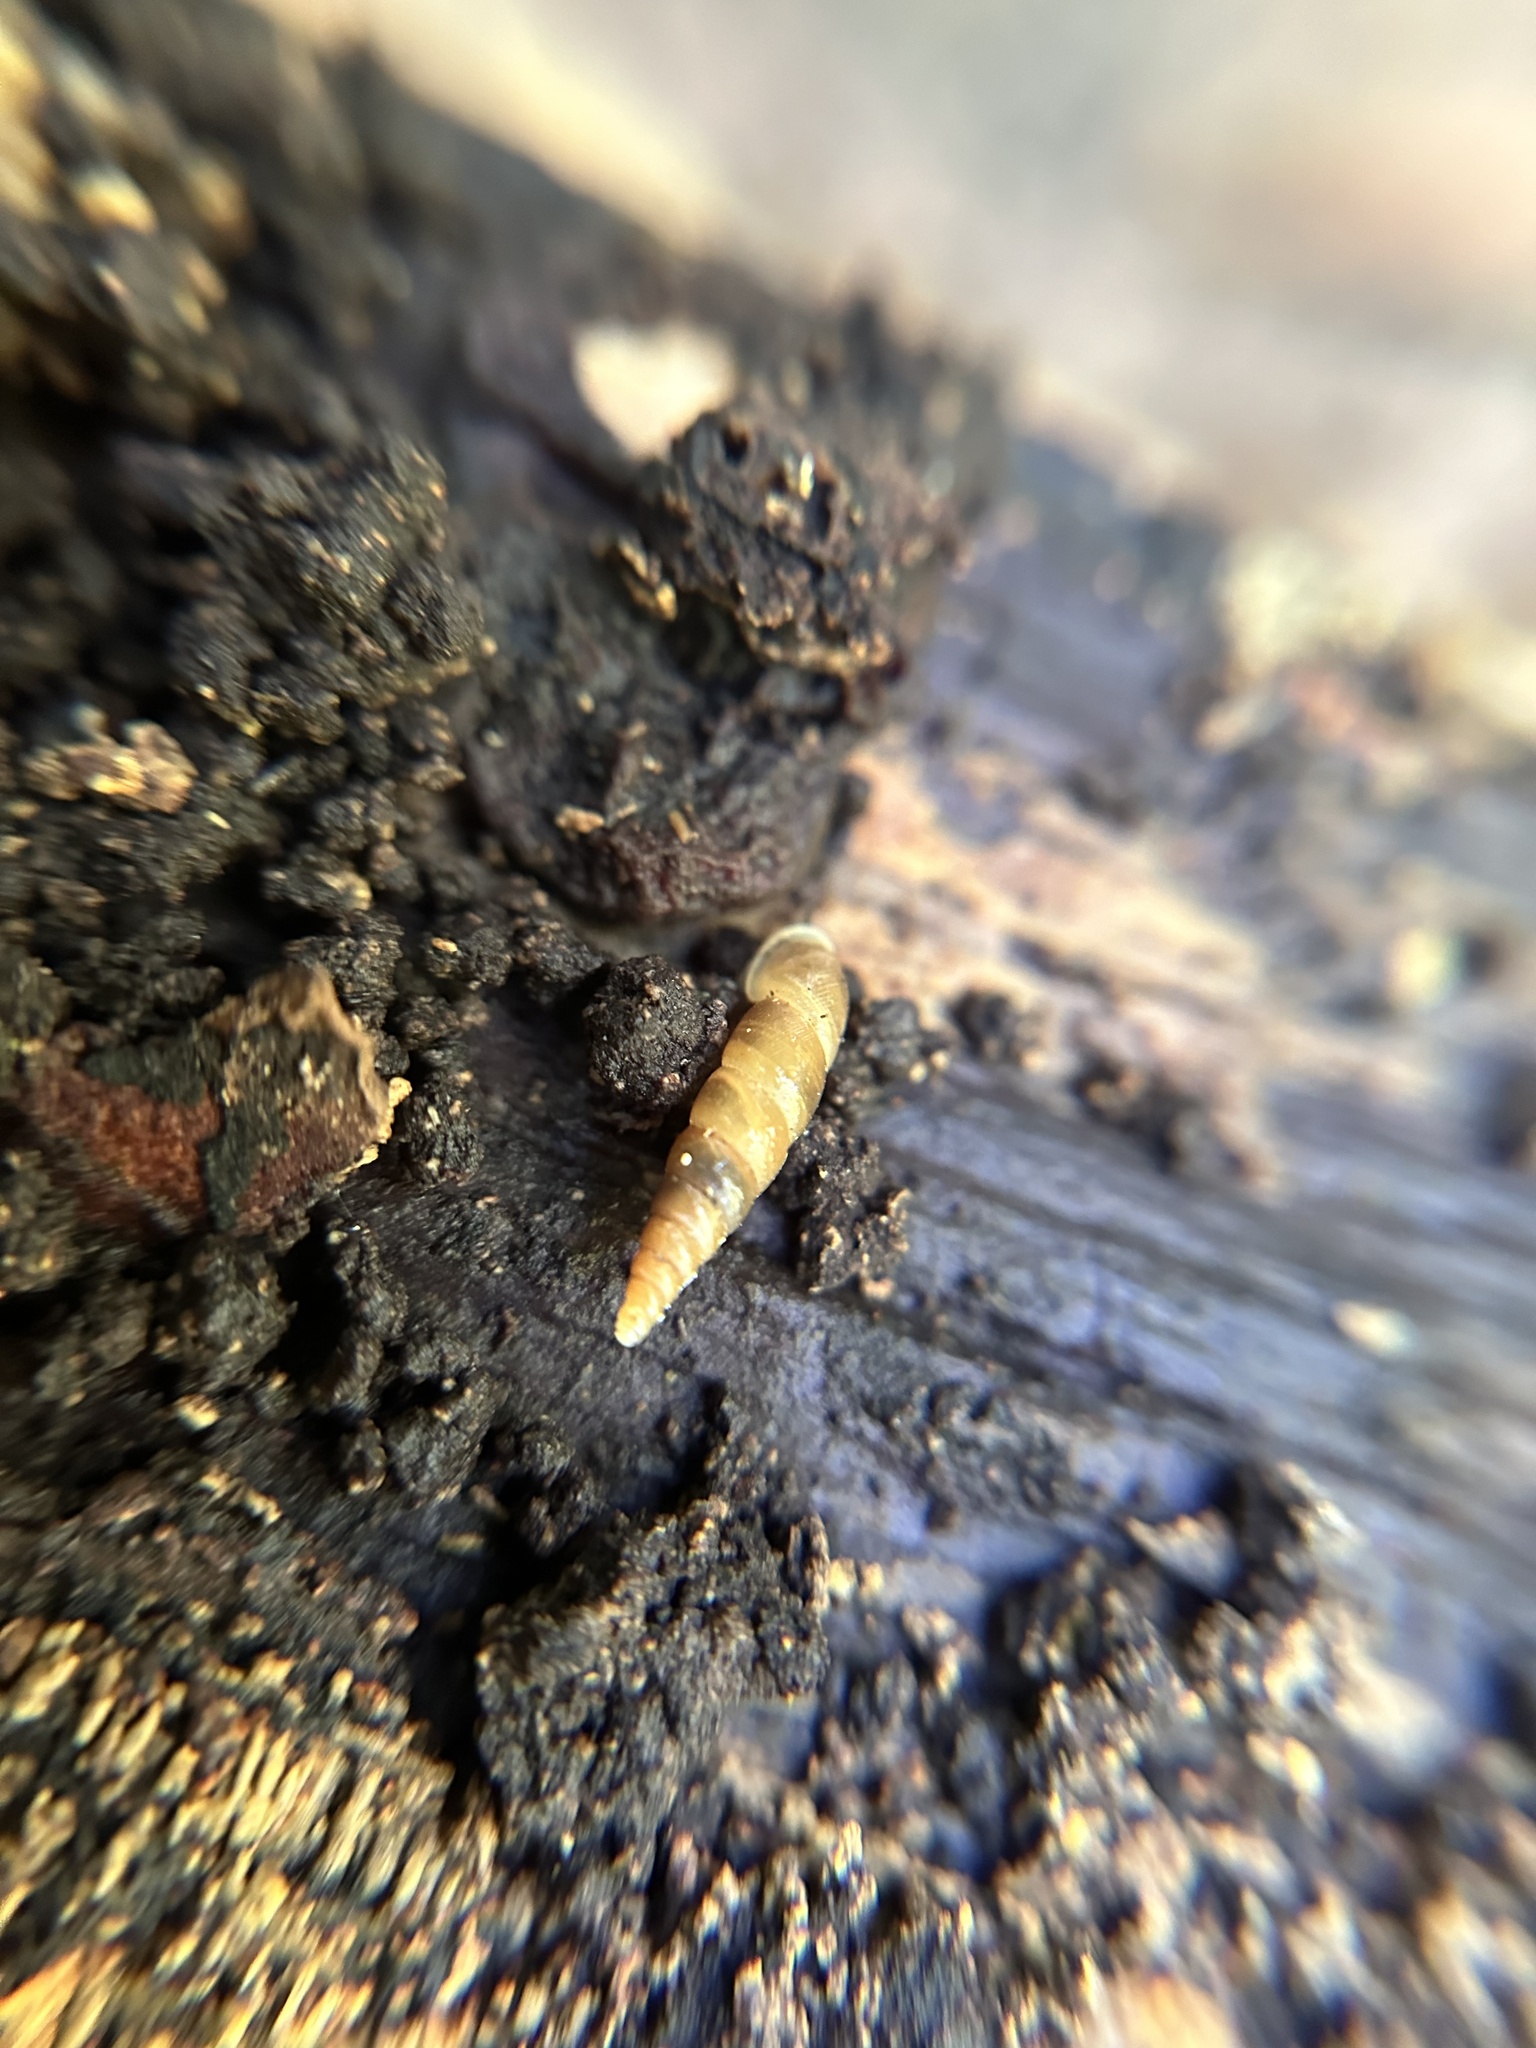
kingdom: Animalia
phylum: Mollusca
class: Gastropoda
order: Stylommatophora
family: Clausiliidae
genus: Tauphaedusa
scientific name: Tauphaedusa tau
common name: Snail
